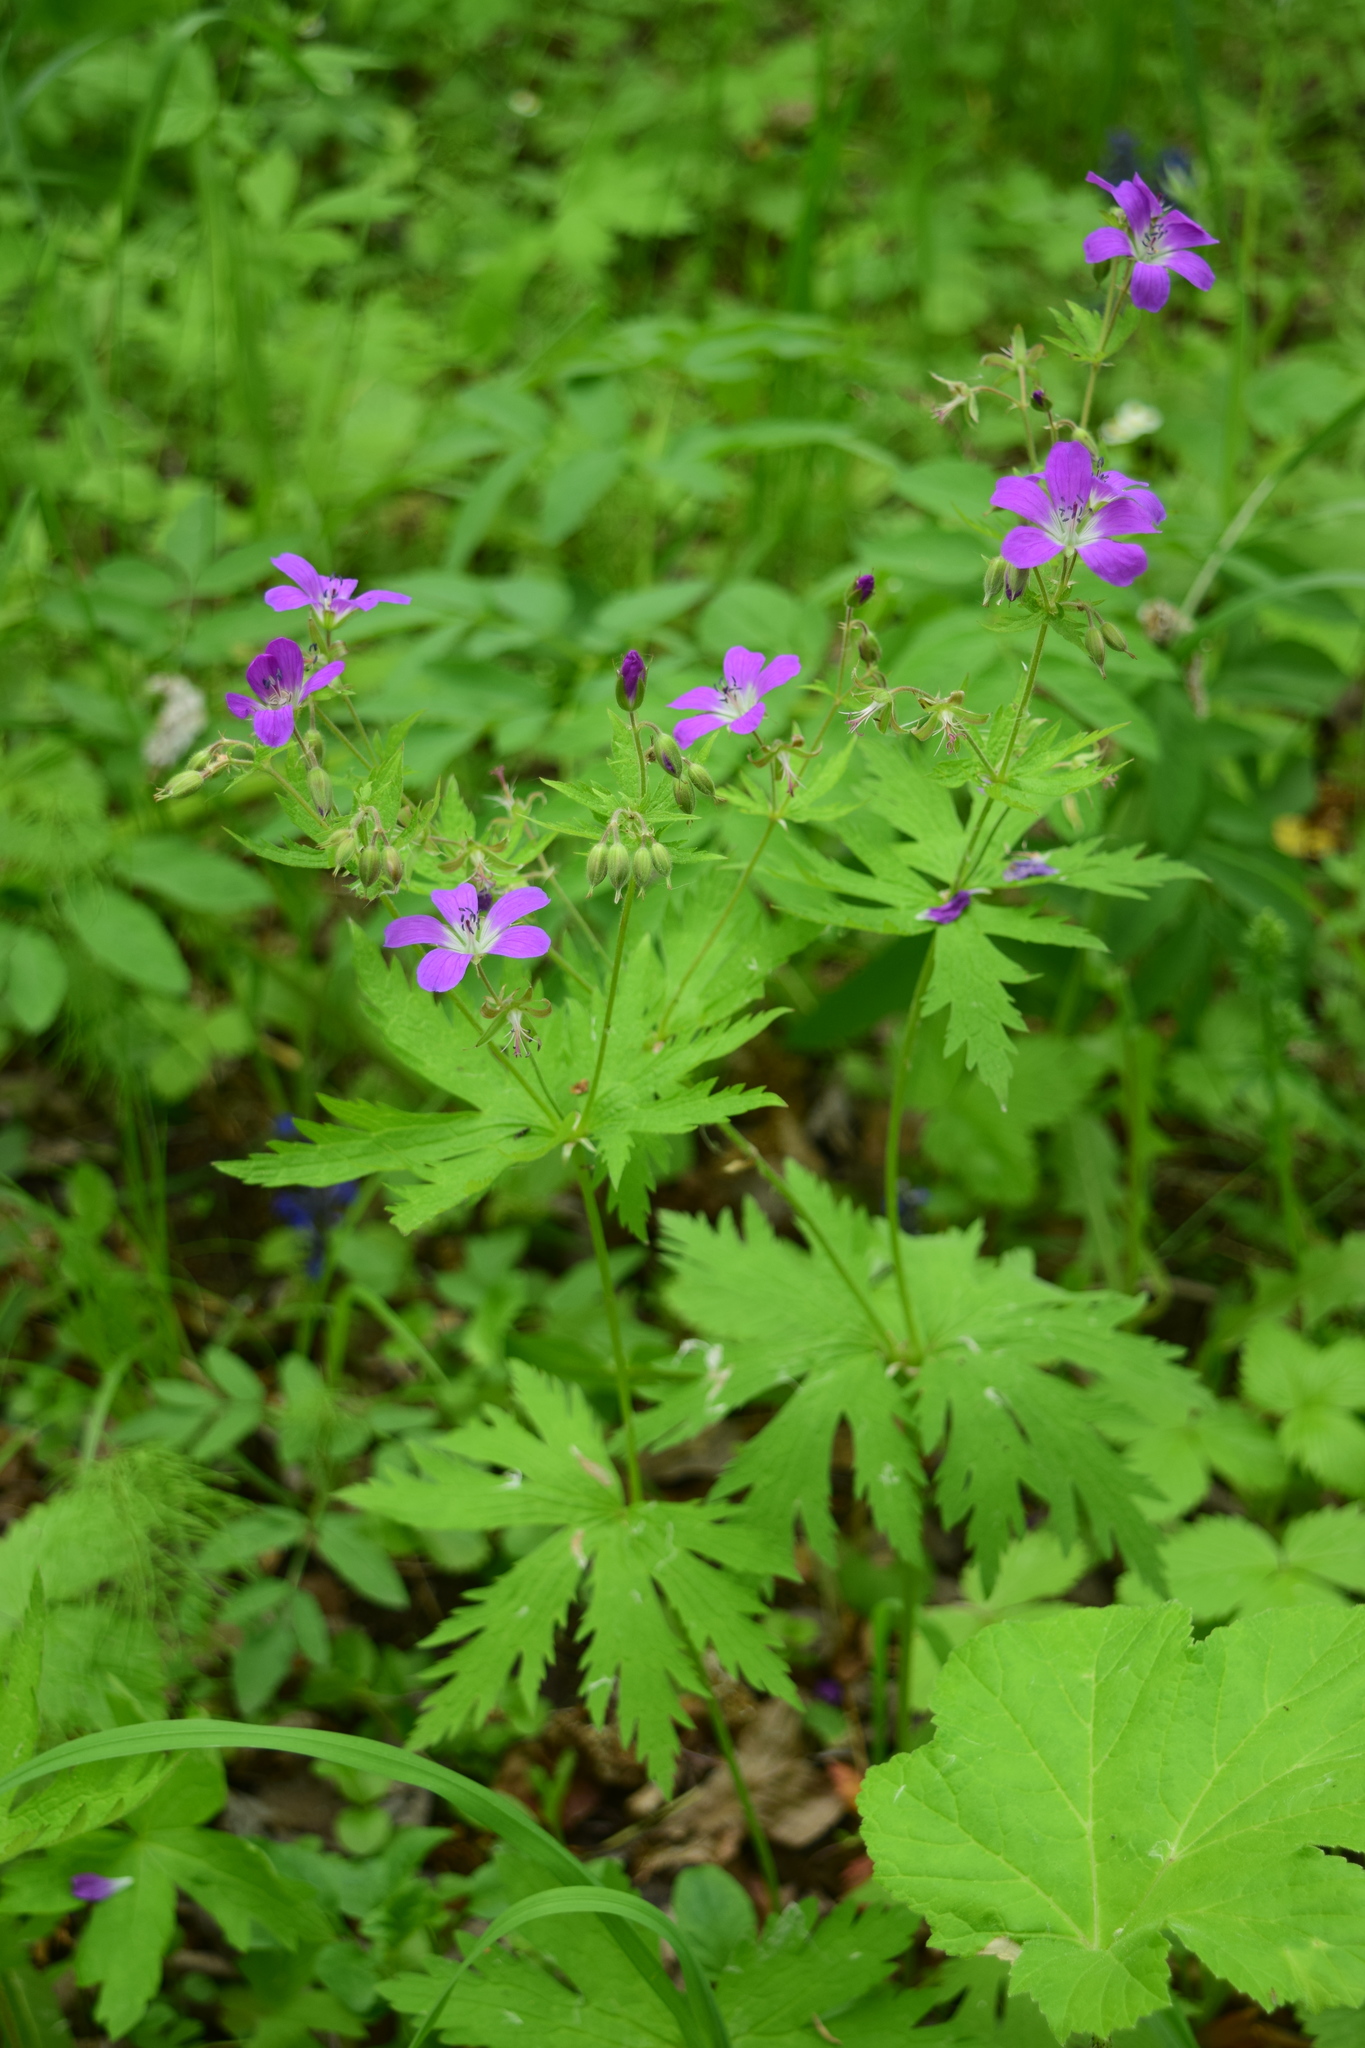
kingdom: Plantae
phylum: Tracheophyta
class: Magnoliopsida
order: Geraniales
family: Geraniaceae
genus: Geranium
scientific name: Geranium sylvaticum
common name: Wood crane's-bill
